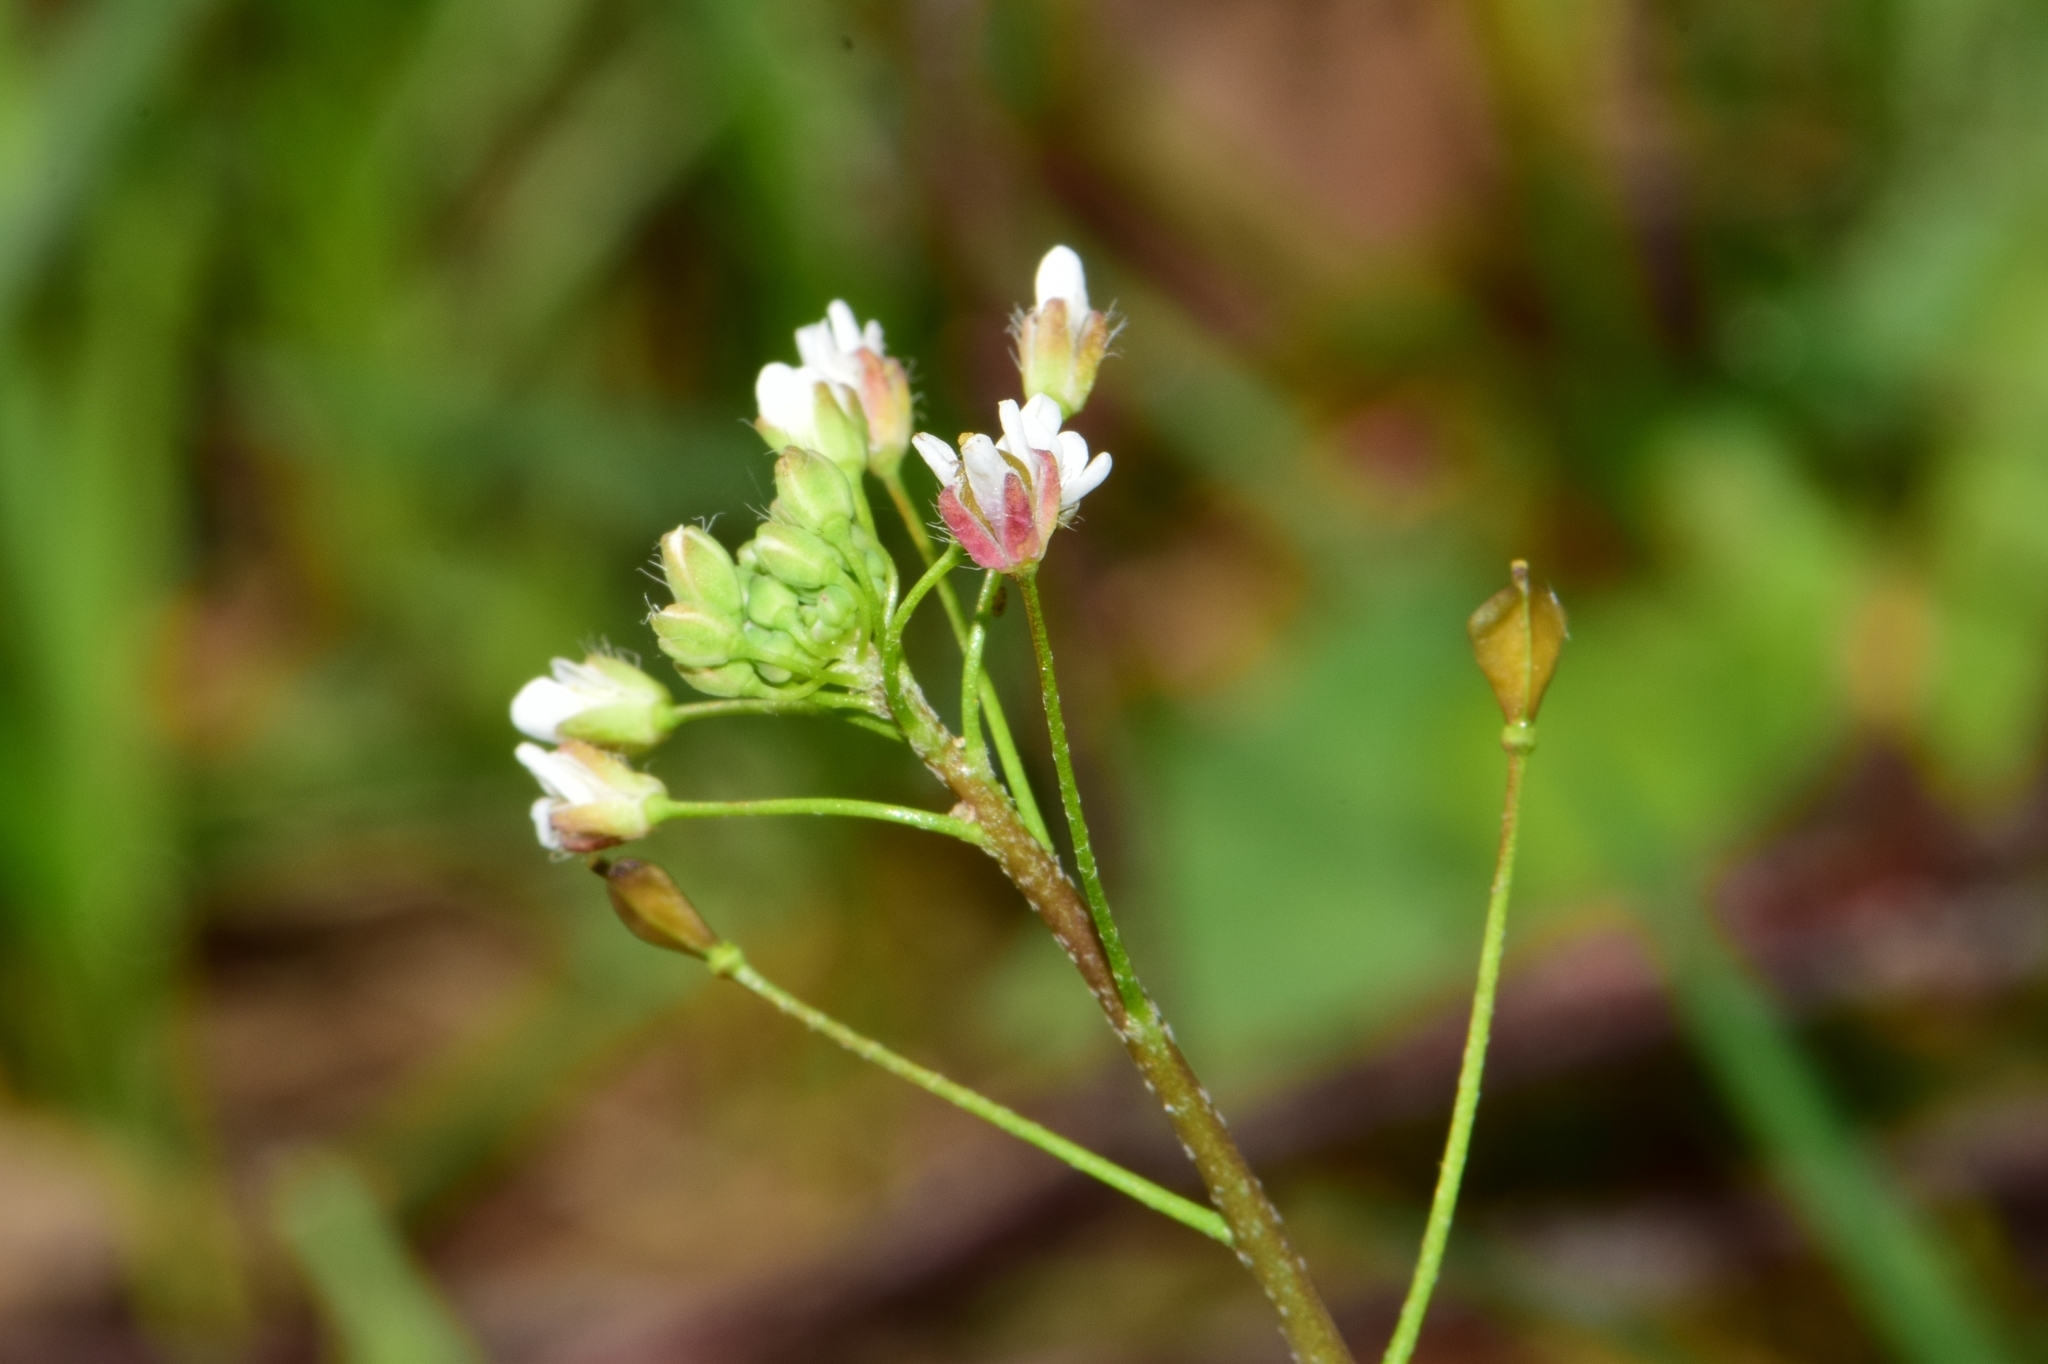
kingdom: Plantae
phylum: Tracheophyta
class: Magnoliopsida
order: Brassicales
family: Brassicaceae
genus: Capsella
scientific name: Capsella bursa-pastoris
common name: Shepherd's purse
